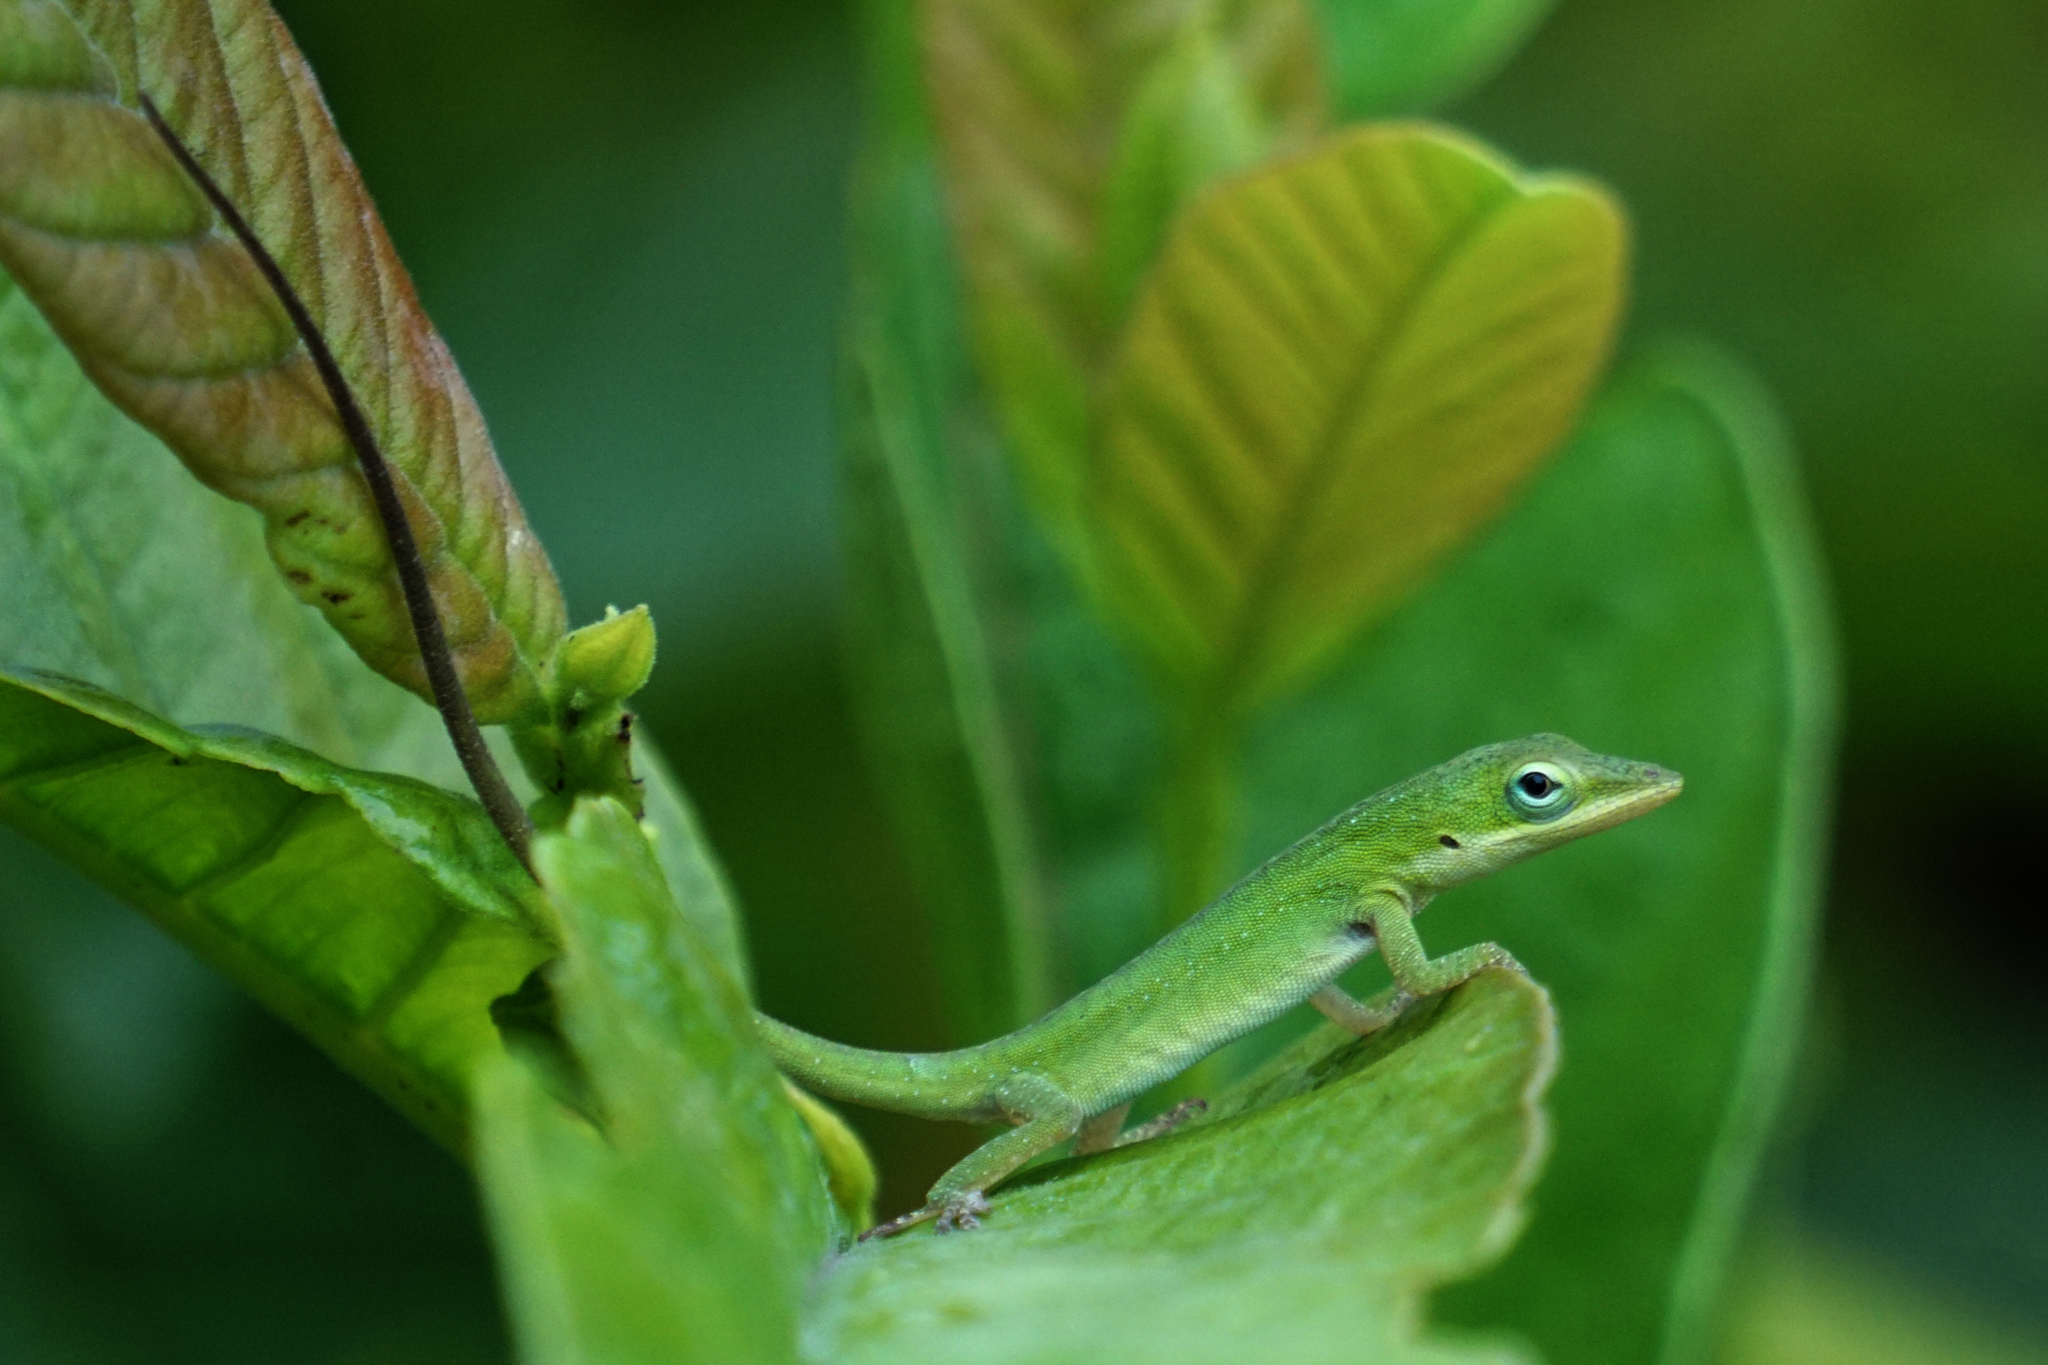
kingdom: Animalia
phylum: Chordata
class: Squamata
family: Dactyloidae
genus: Anolis
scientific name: Anolis carolinensis
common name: Green anole
